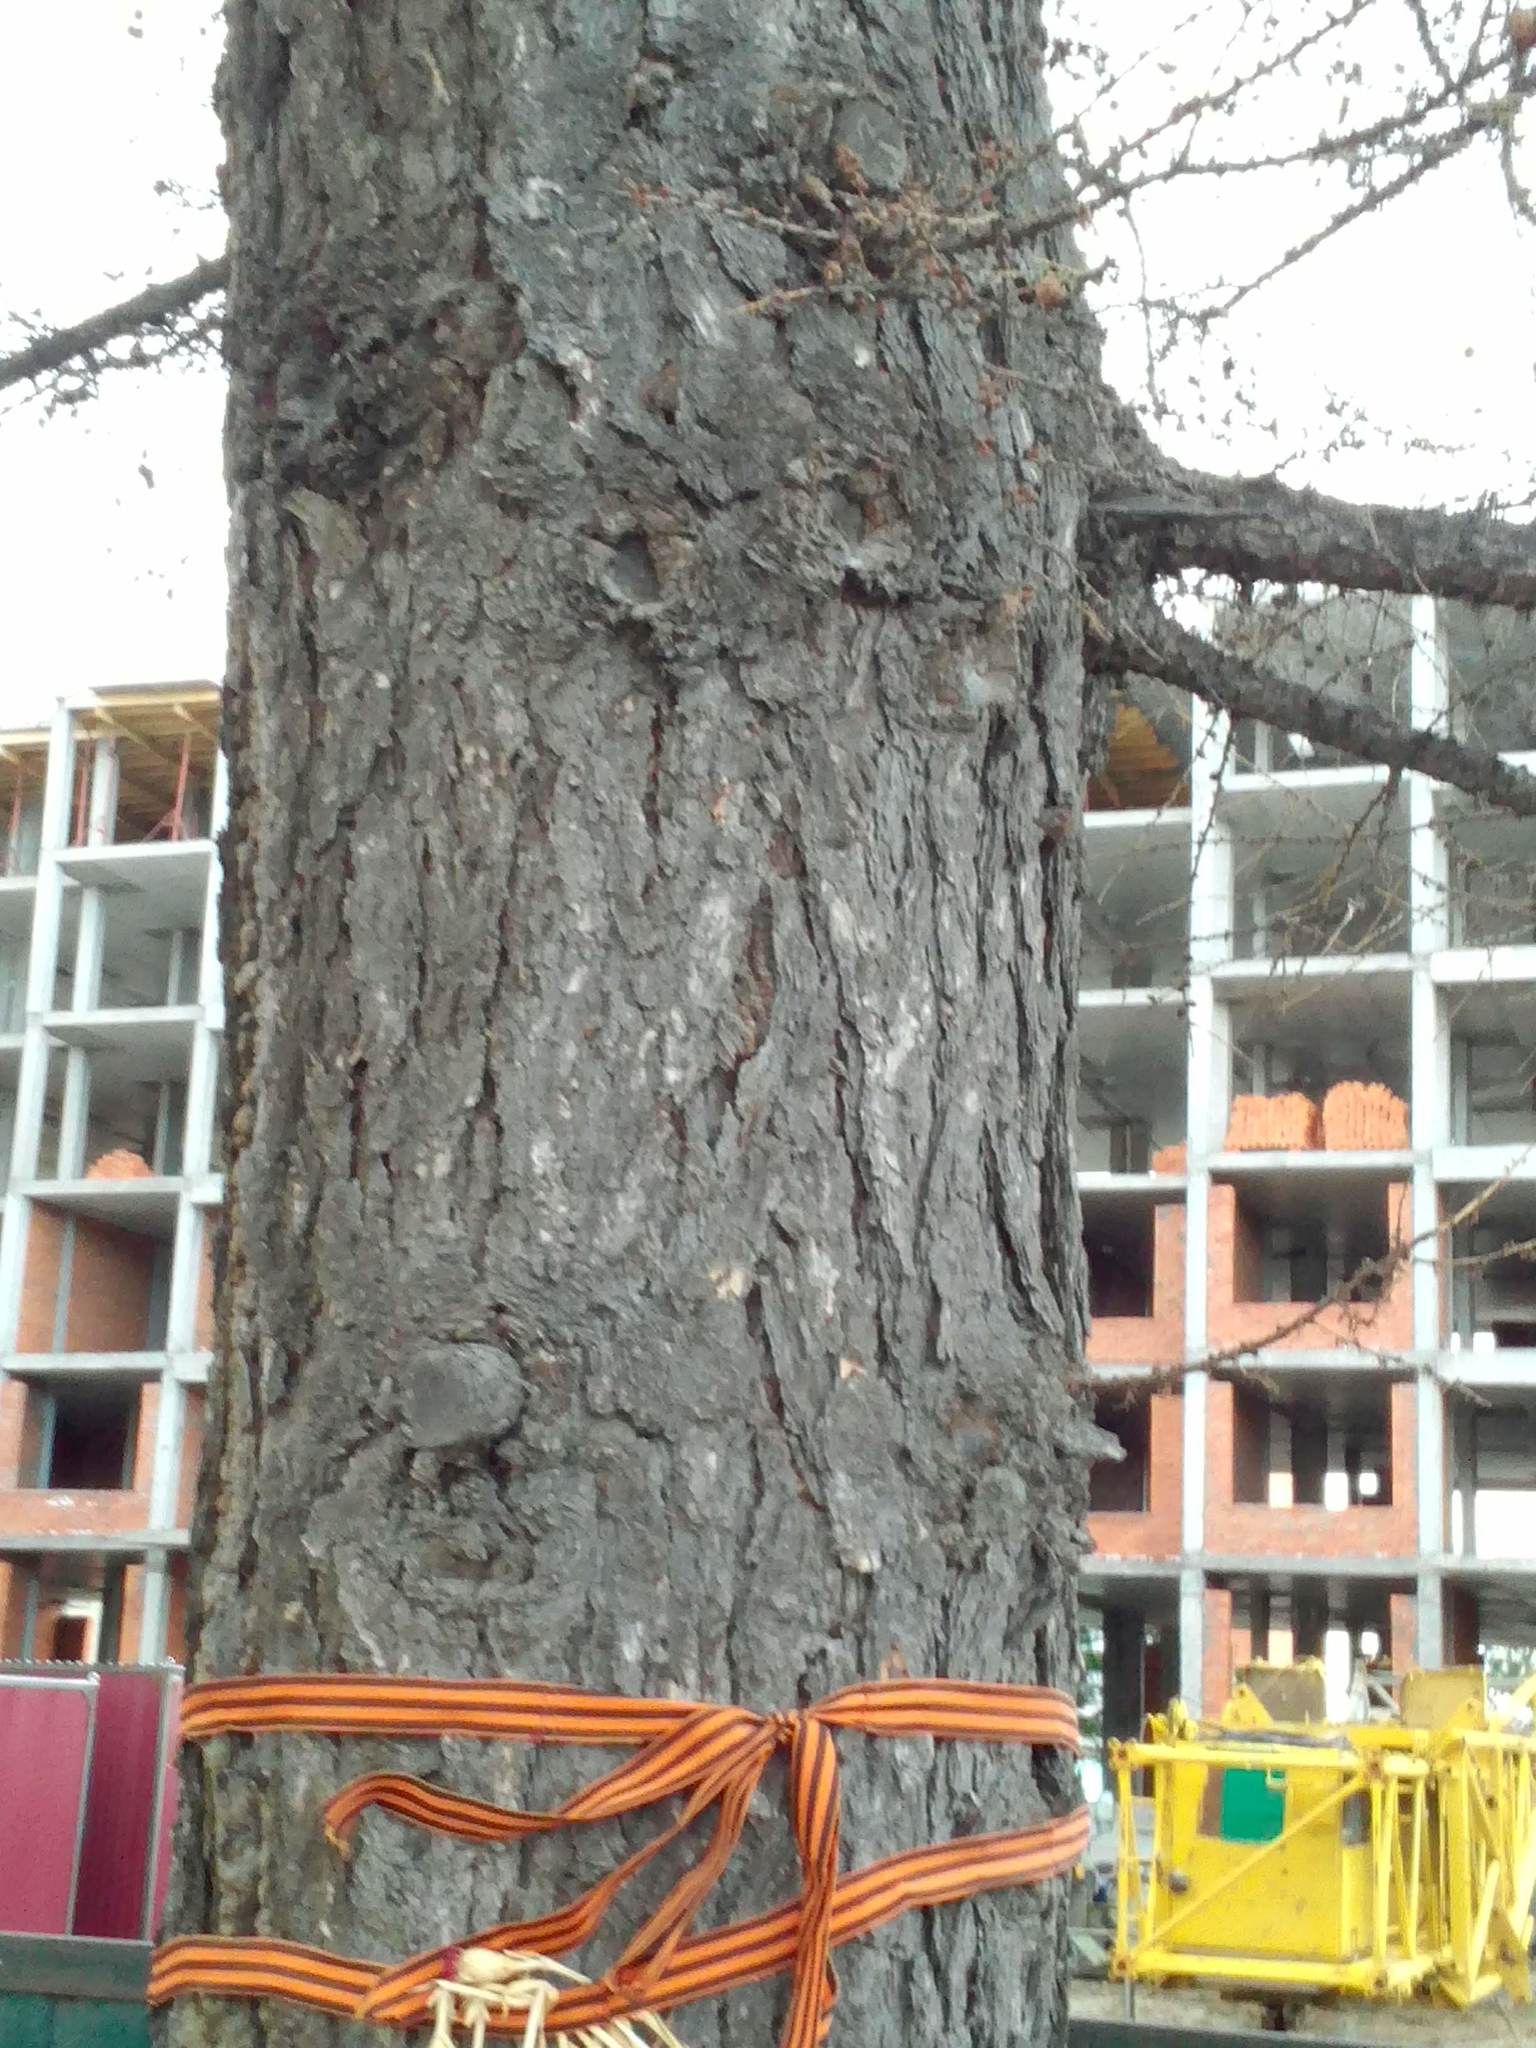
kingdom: Plantae
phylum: Tracheophyta
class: Pinopsida
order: Pinales
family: Pinaceae
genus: Larix
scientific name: Larix sibirica
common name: Siberian larch
